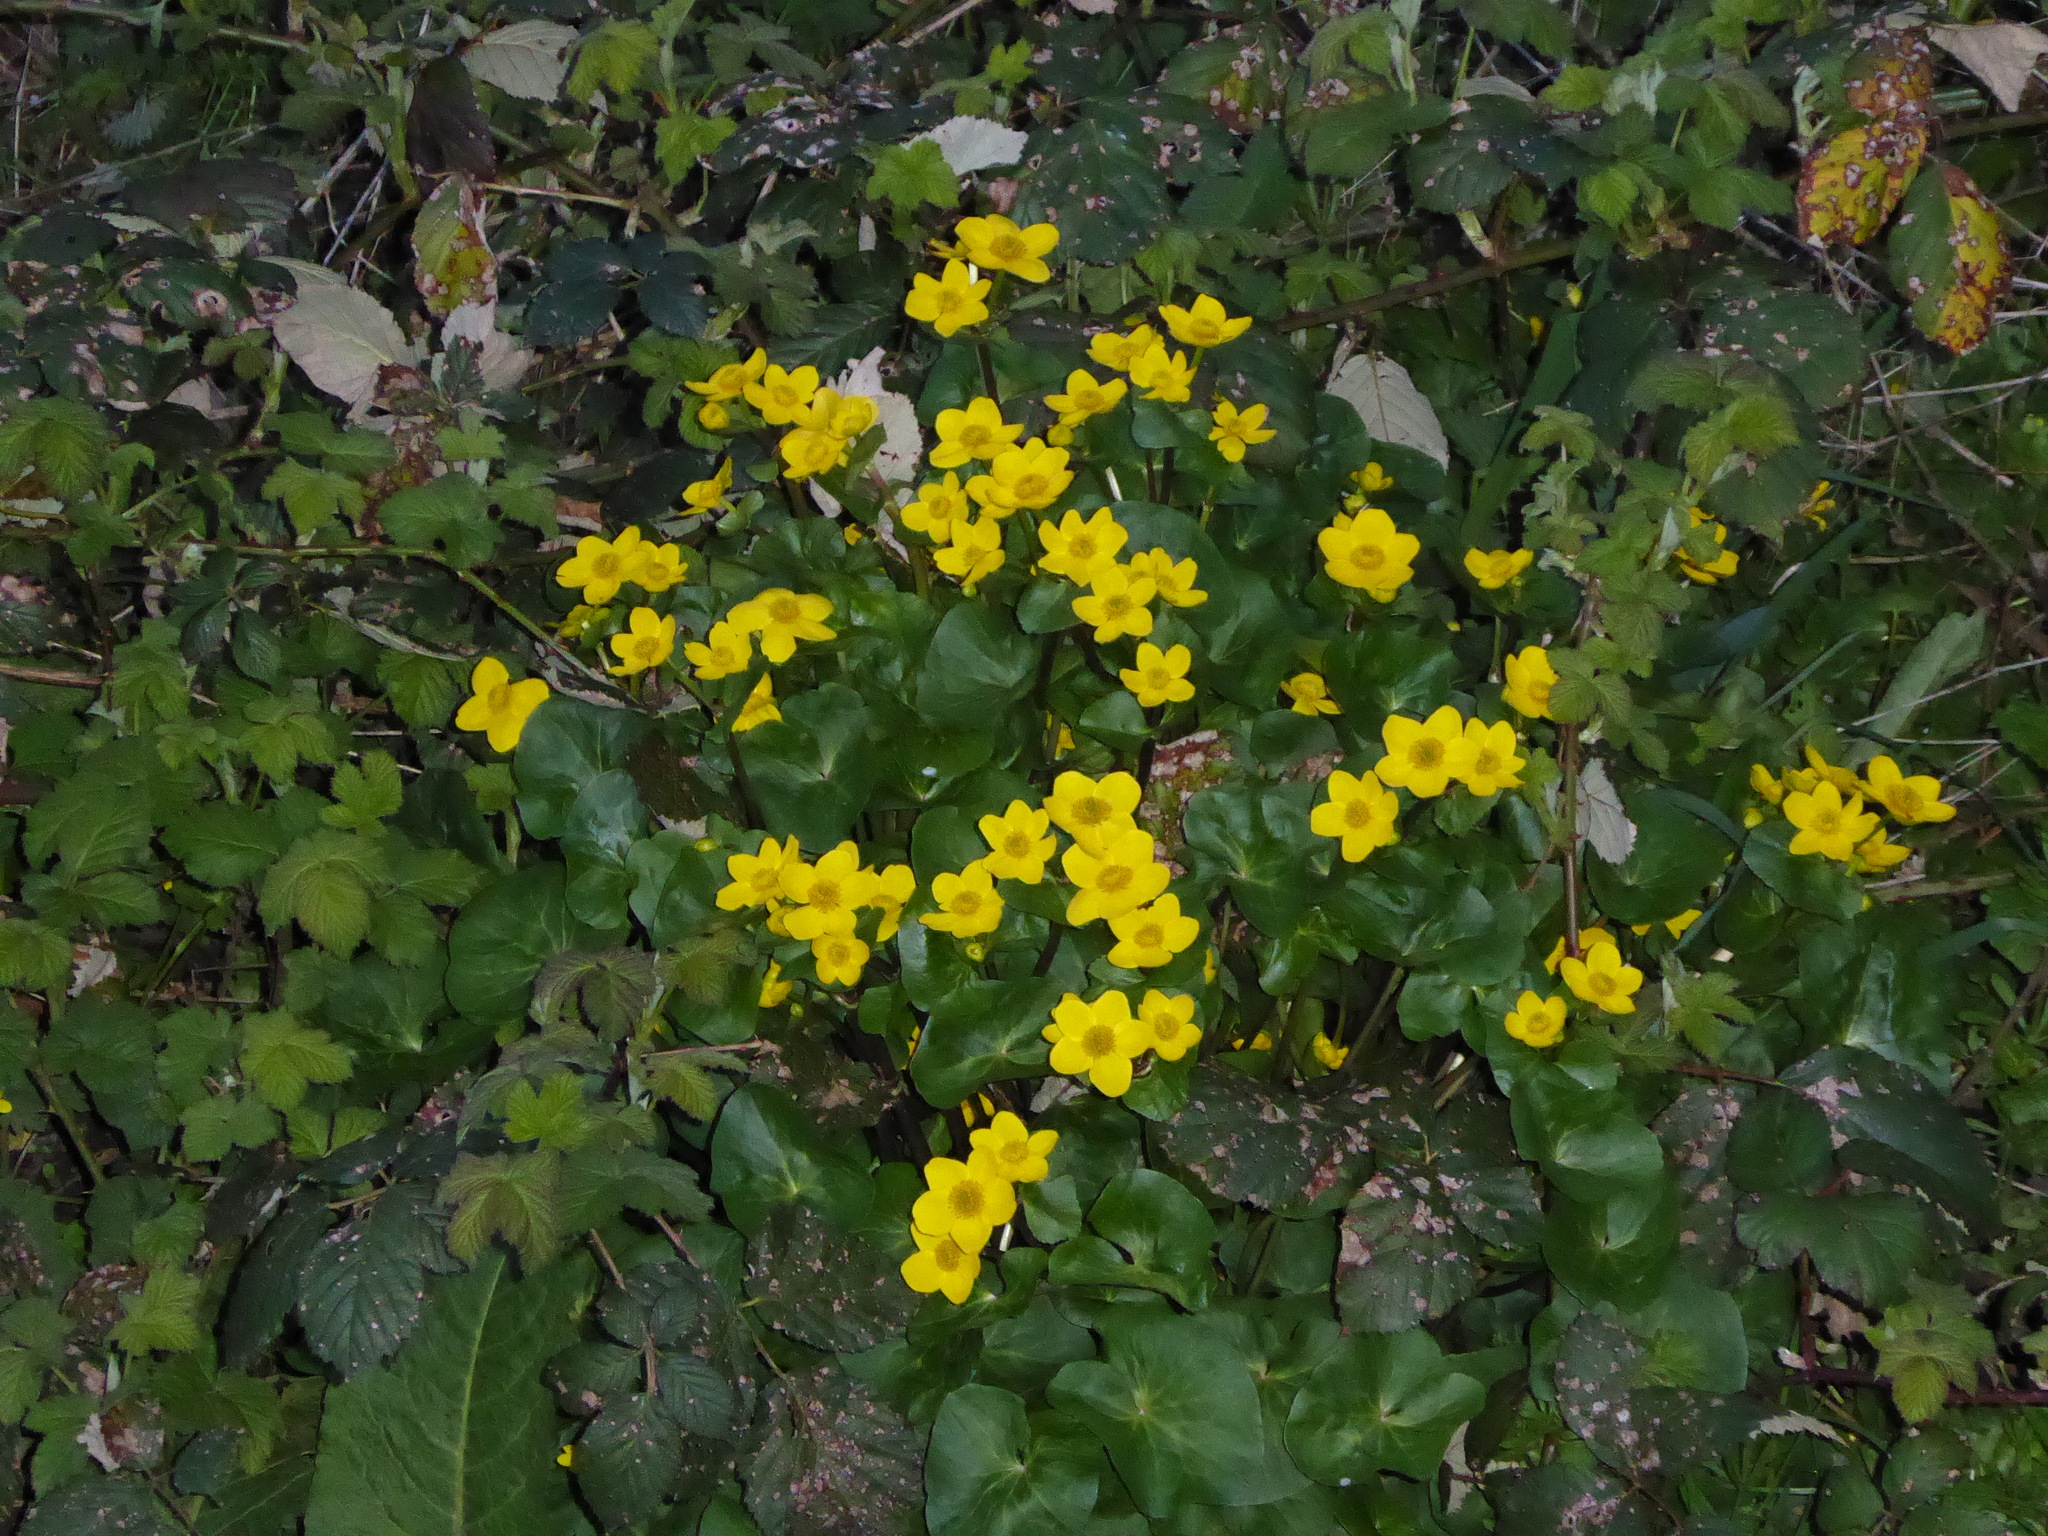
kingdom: Plantae
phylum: Tracheophyta
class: Magnoliopsida
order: Ranunculales
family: Ranunculaceae
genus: Caltha
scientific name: Caltha palustris
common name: Marsh marigold
